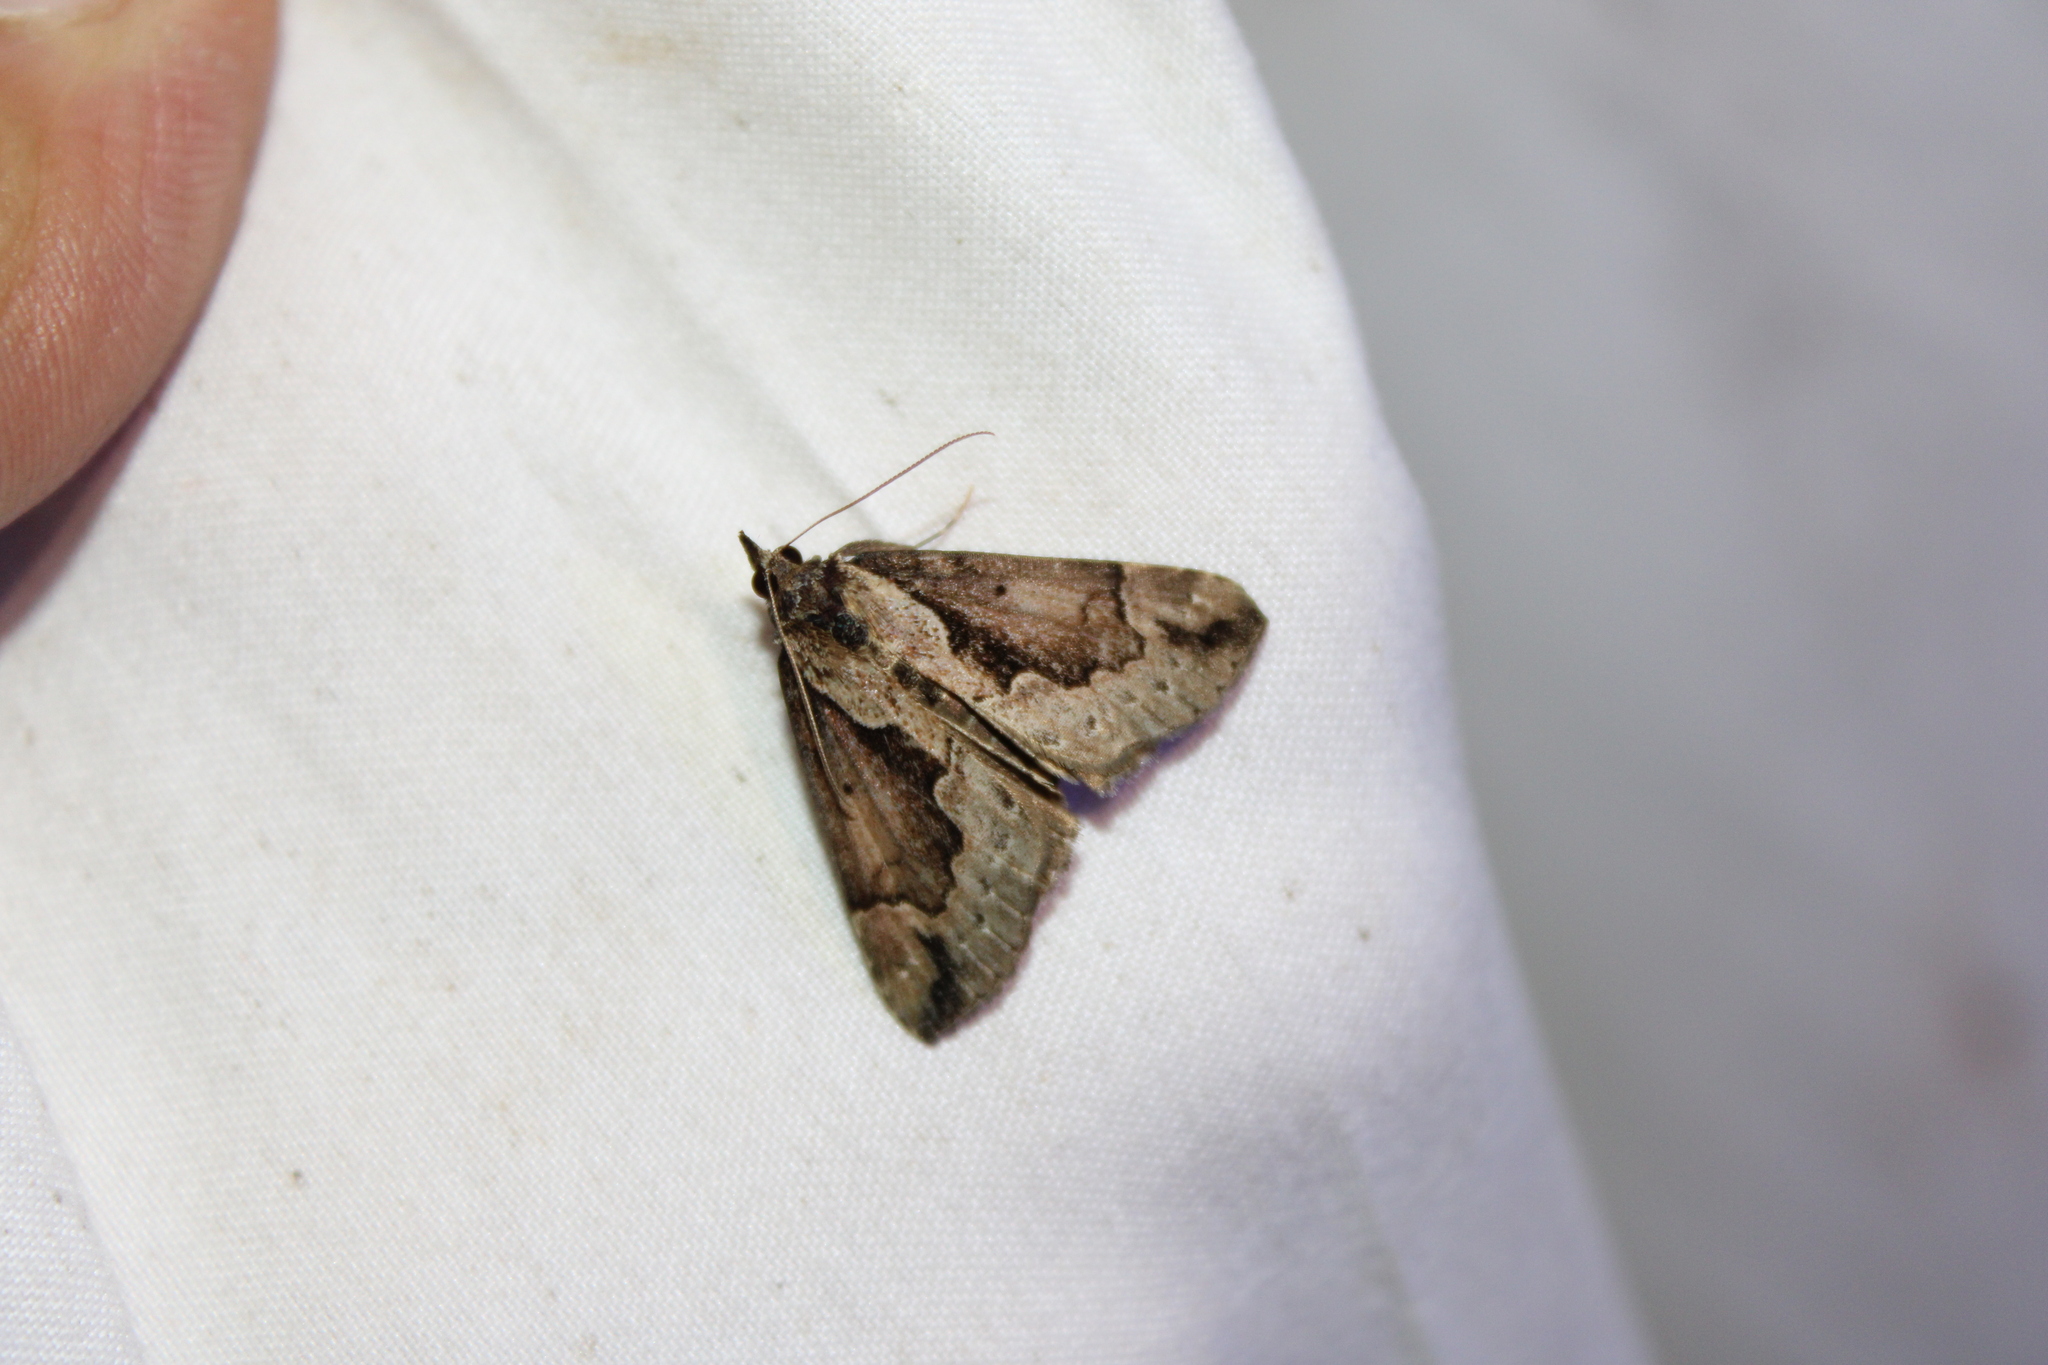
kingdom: Animalia
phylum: Arthropoda
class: Insecta
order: Lepidoptera
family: Erebidae
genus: Hypena
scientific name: Hypena baltimoralis
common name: Baltimore snout
